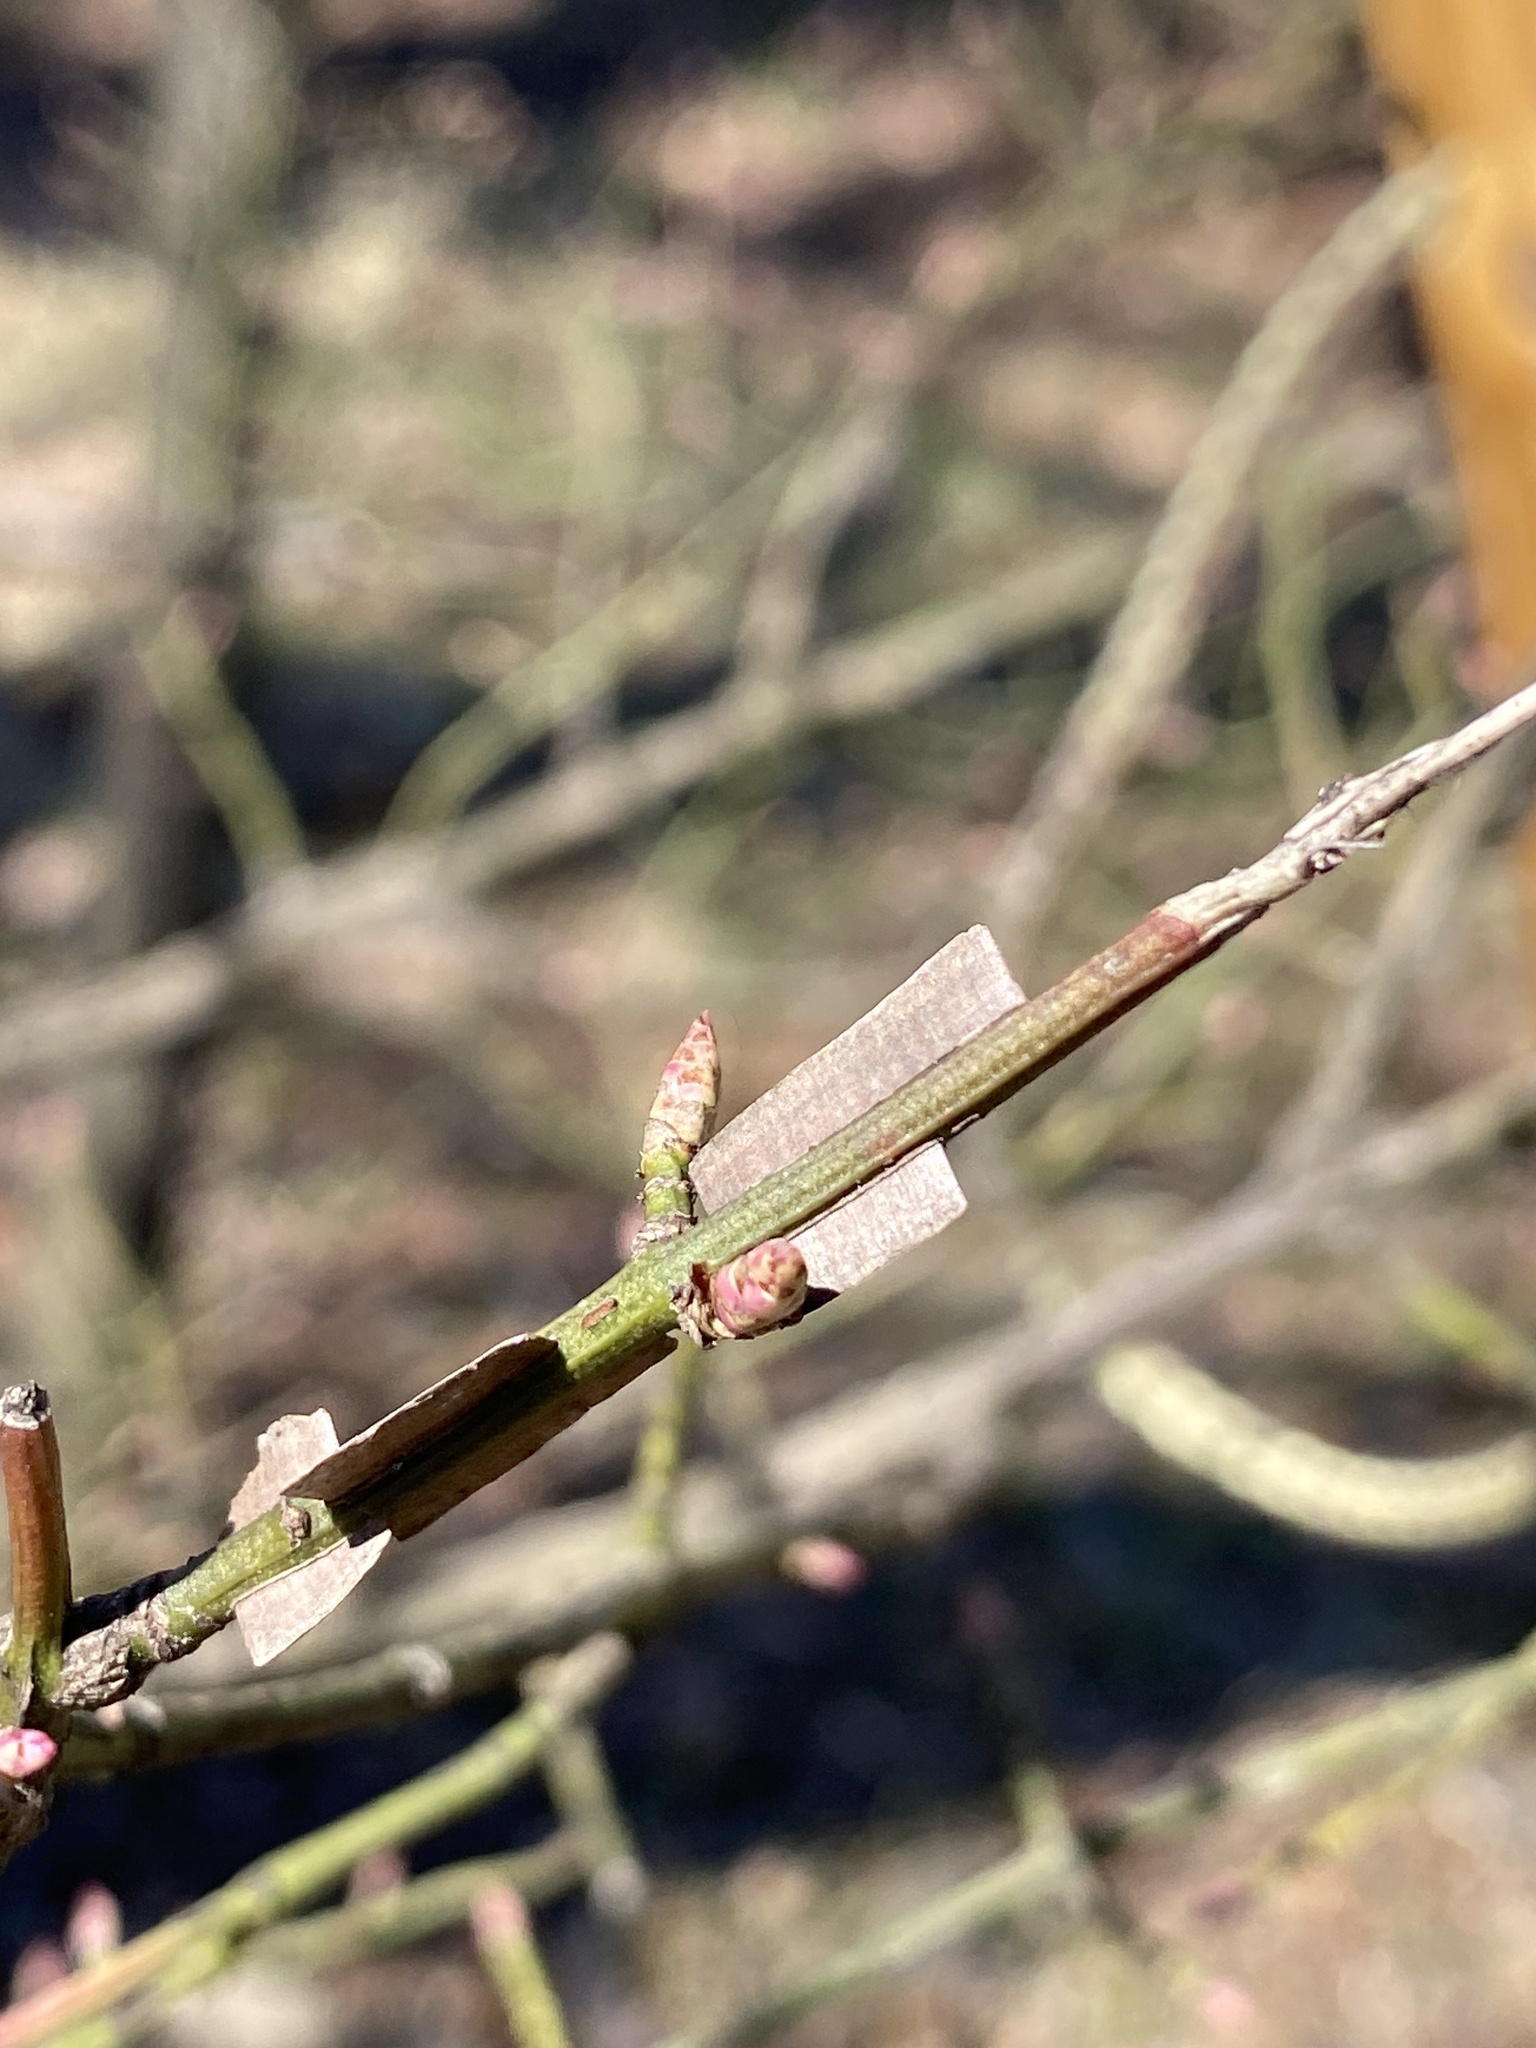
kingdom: Plantae
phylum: Tracheophyta
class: Magnoliopsida
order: Celastrales
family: Celastraceae
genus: Euonymus
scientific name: Euonymus alatus
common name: Winged euonymus
